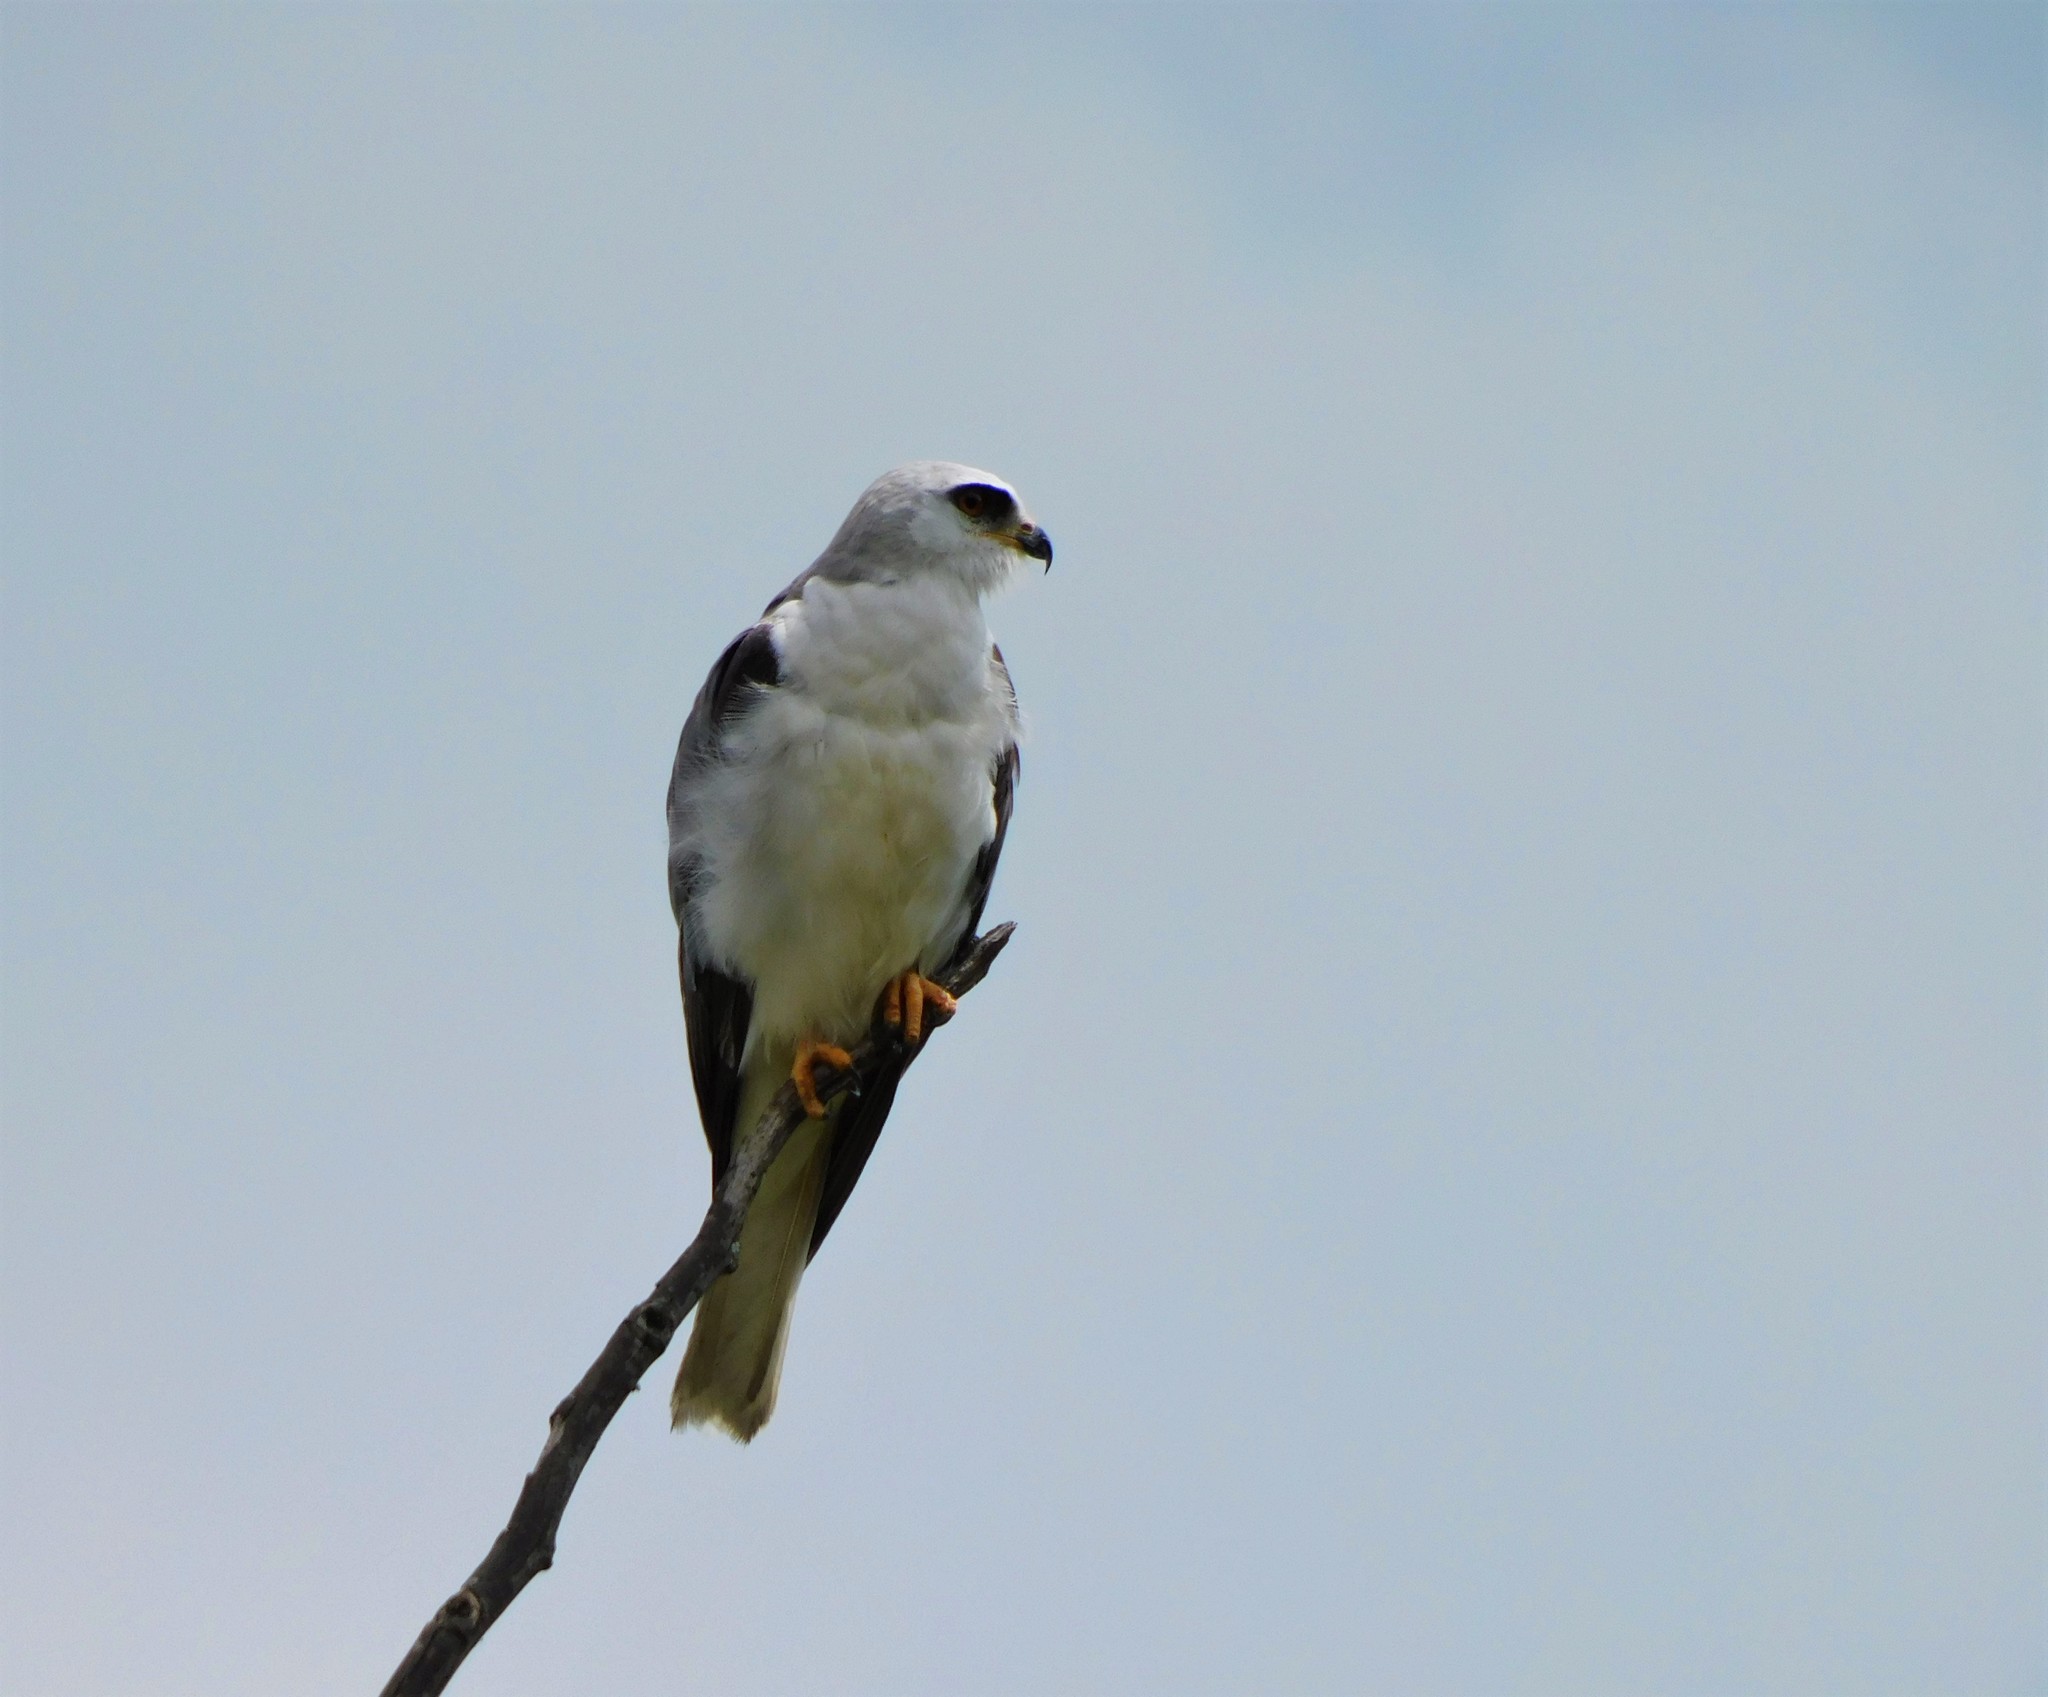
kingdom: Animalia
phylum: Chordata
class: Aves
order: Accipitriformes
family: Accipitridae
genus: Elanus
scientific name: Elanus leucurus
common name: White-tailed kite
